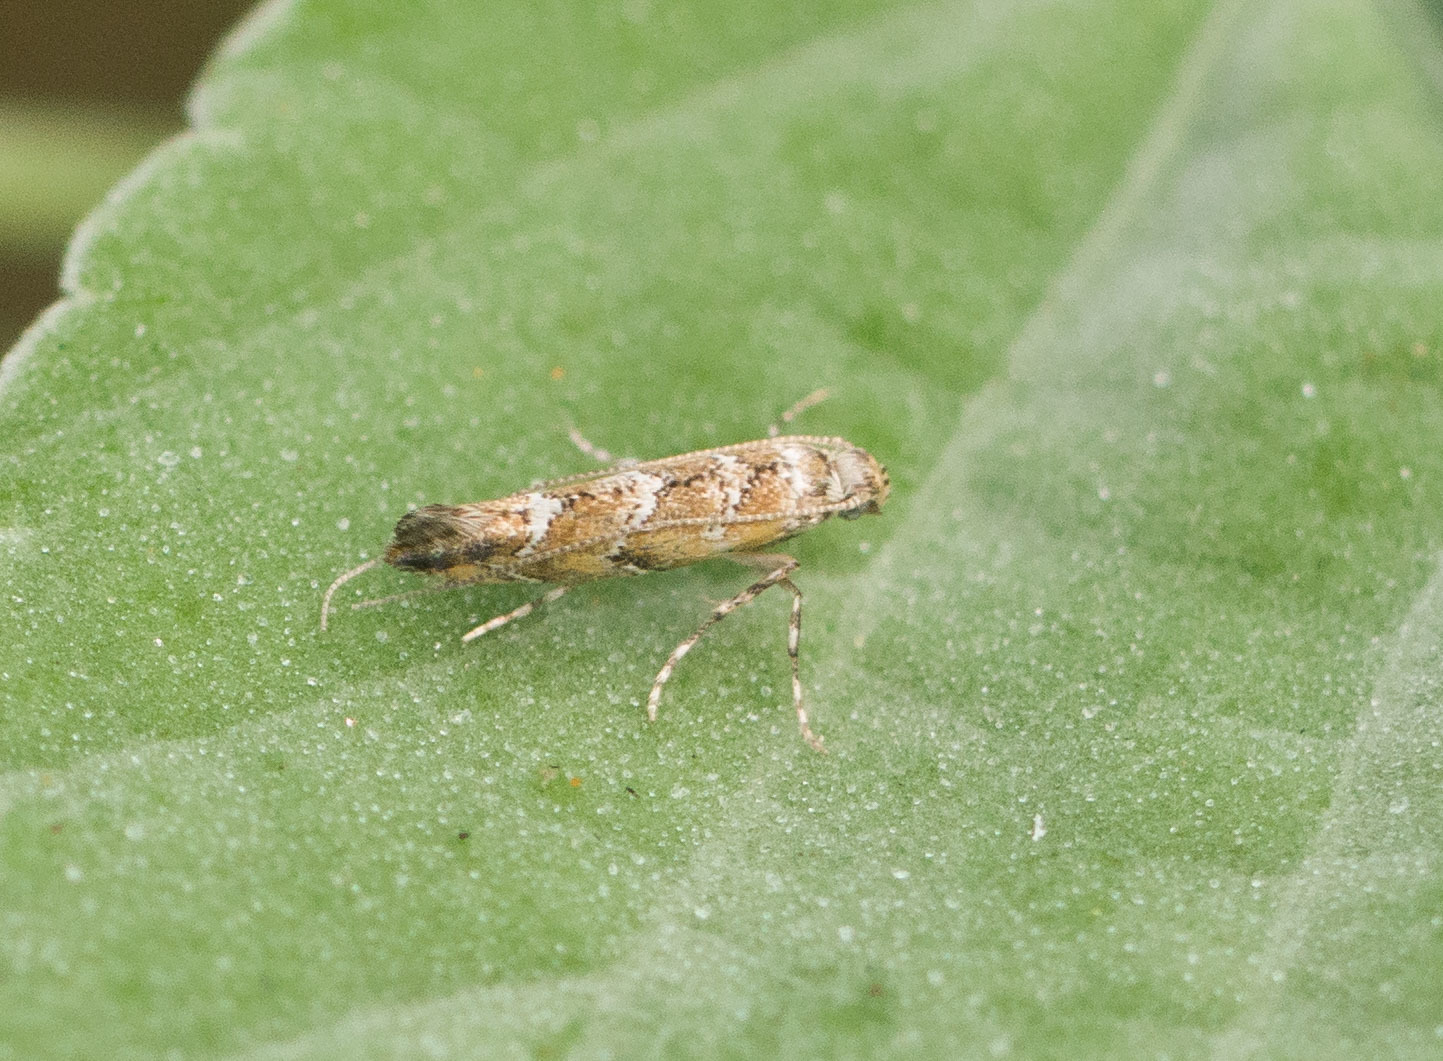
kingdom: Animalia
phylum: Arthropoda
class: Insecta
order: Lepidoptera
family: Gracillariidae
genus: Philodoria
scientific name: Philodoria marginestrigata
